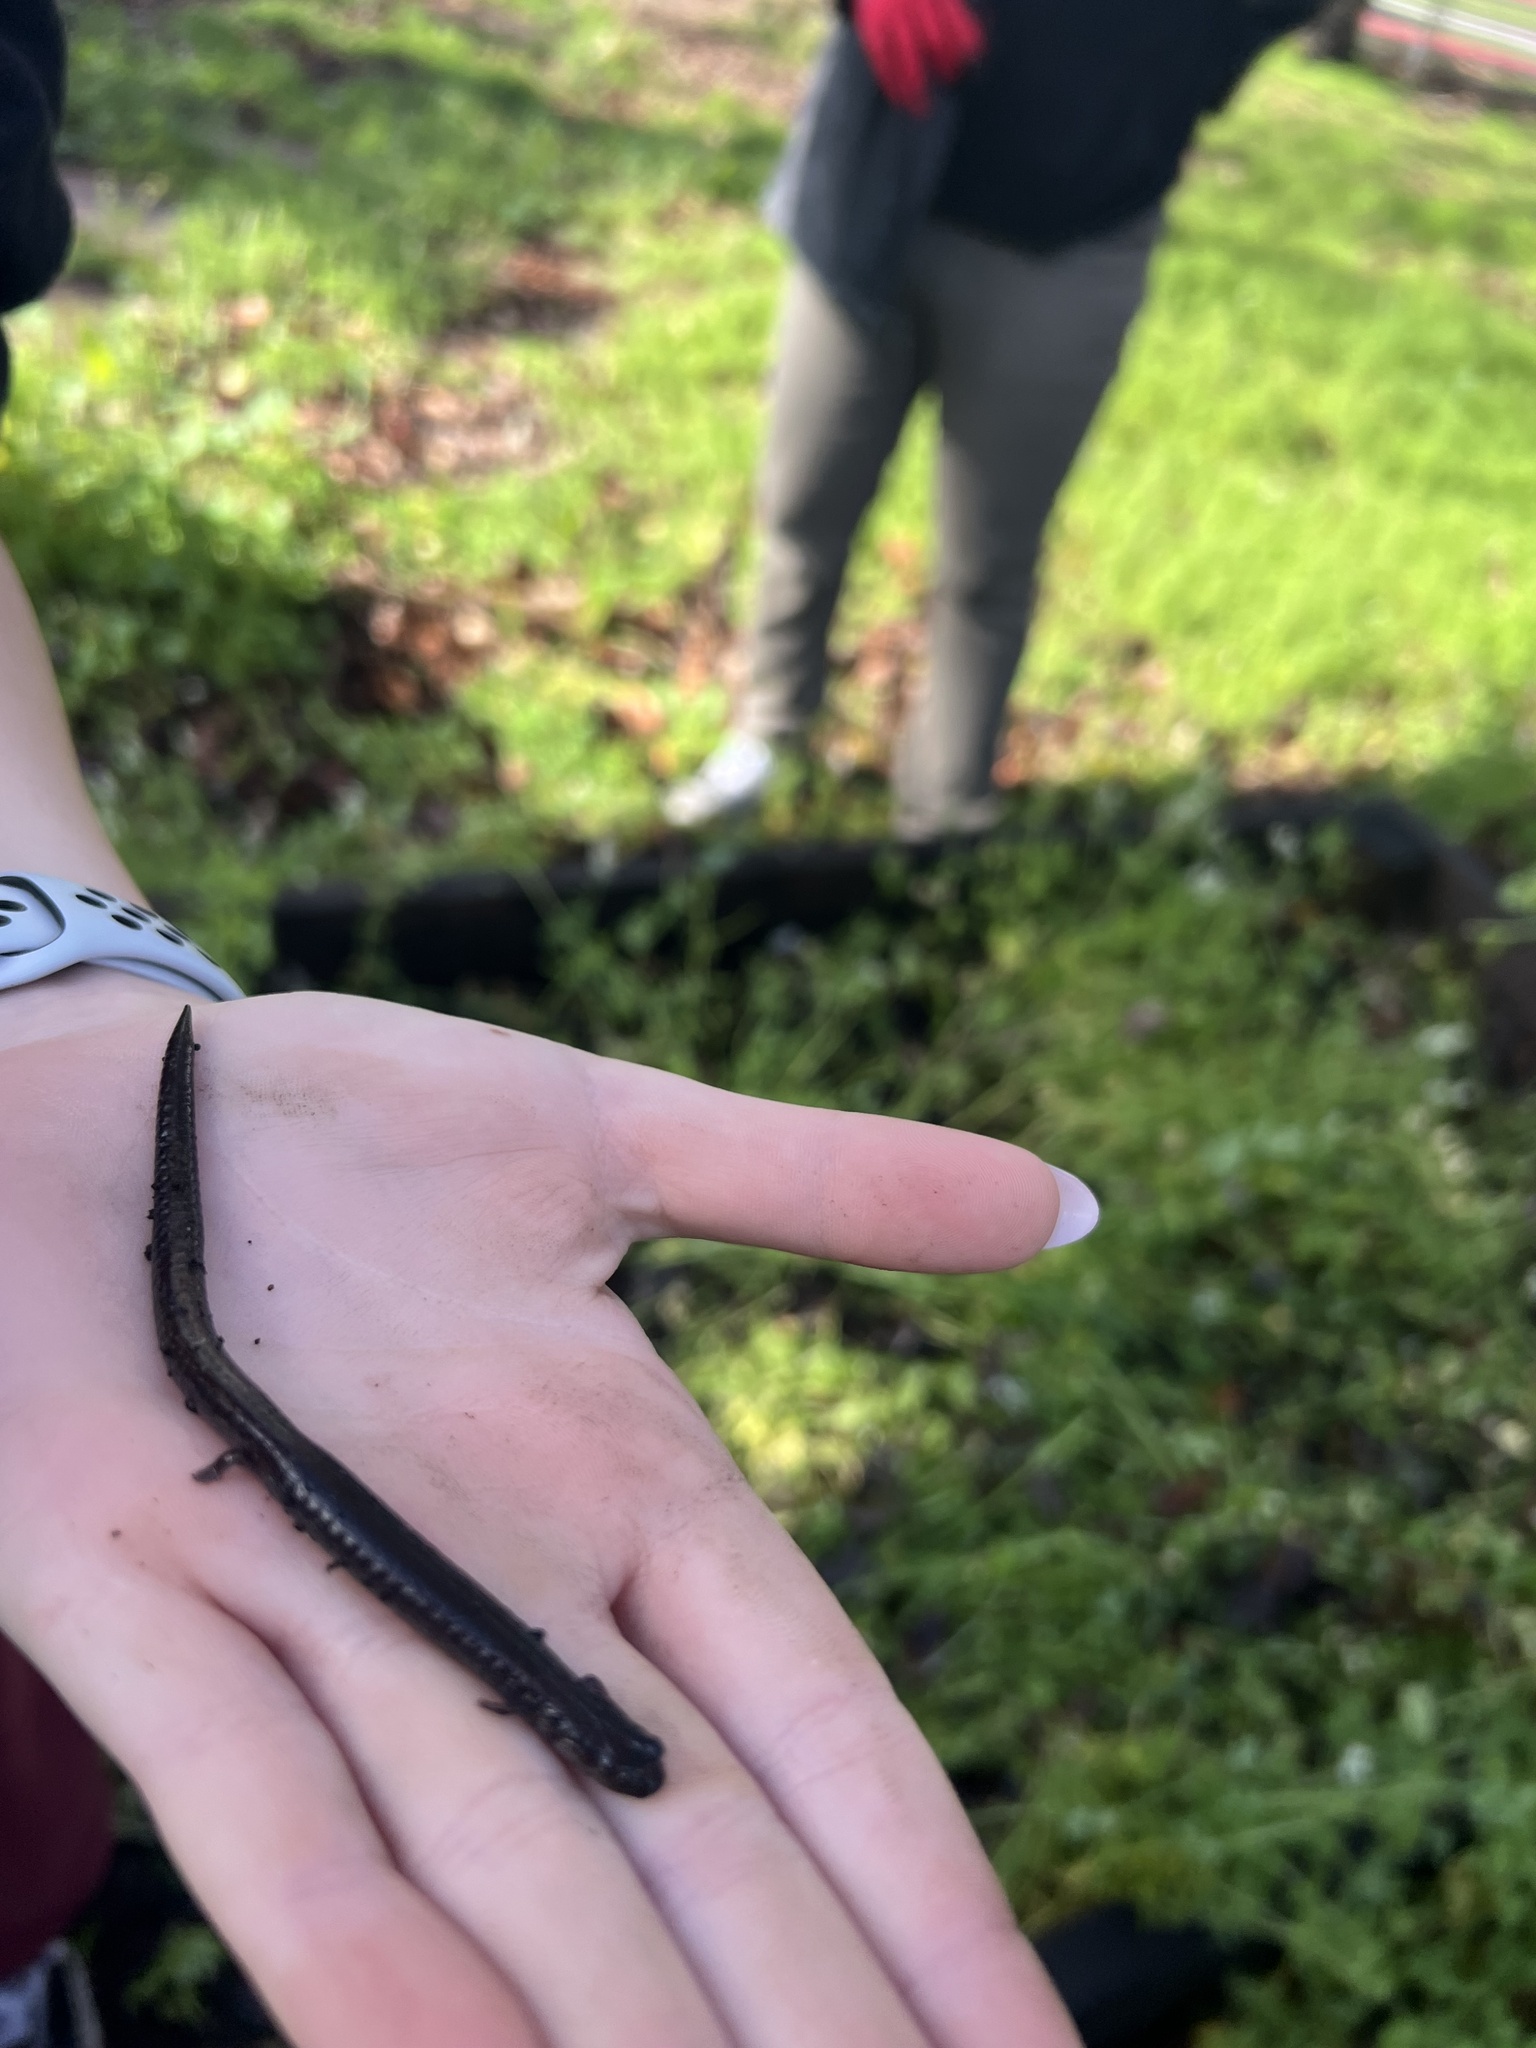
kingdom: Animalia
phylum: Chordata
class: Amphibia
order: Caudata
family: Plethodontidae
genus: Batrachoseps
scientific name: Batrachoseps attenuatus
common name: California slender salamander
